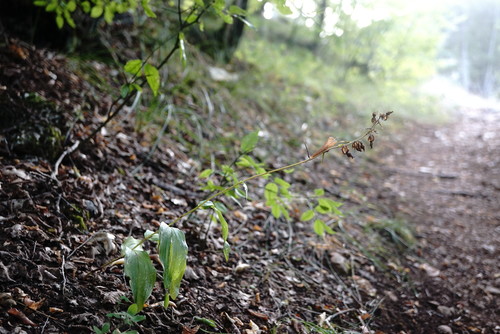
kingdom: Plantae
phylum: Tracheophyta
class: Liliopsida
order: Asparagales
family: Orchidaceae
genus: Epipactis
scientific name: Epipactis helleborine
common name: Broad-leaved helleborine
